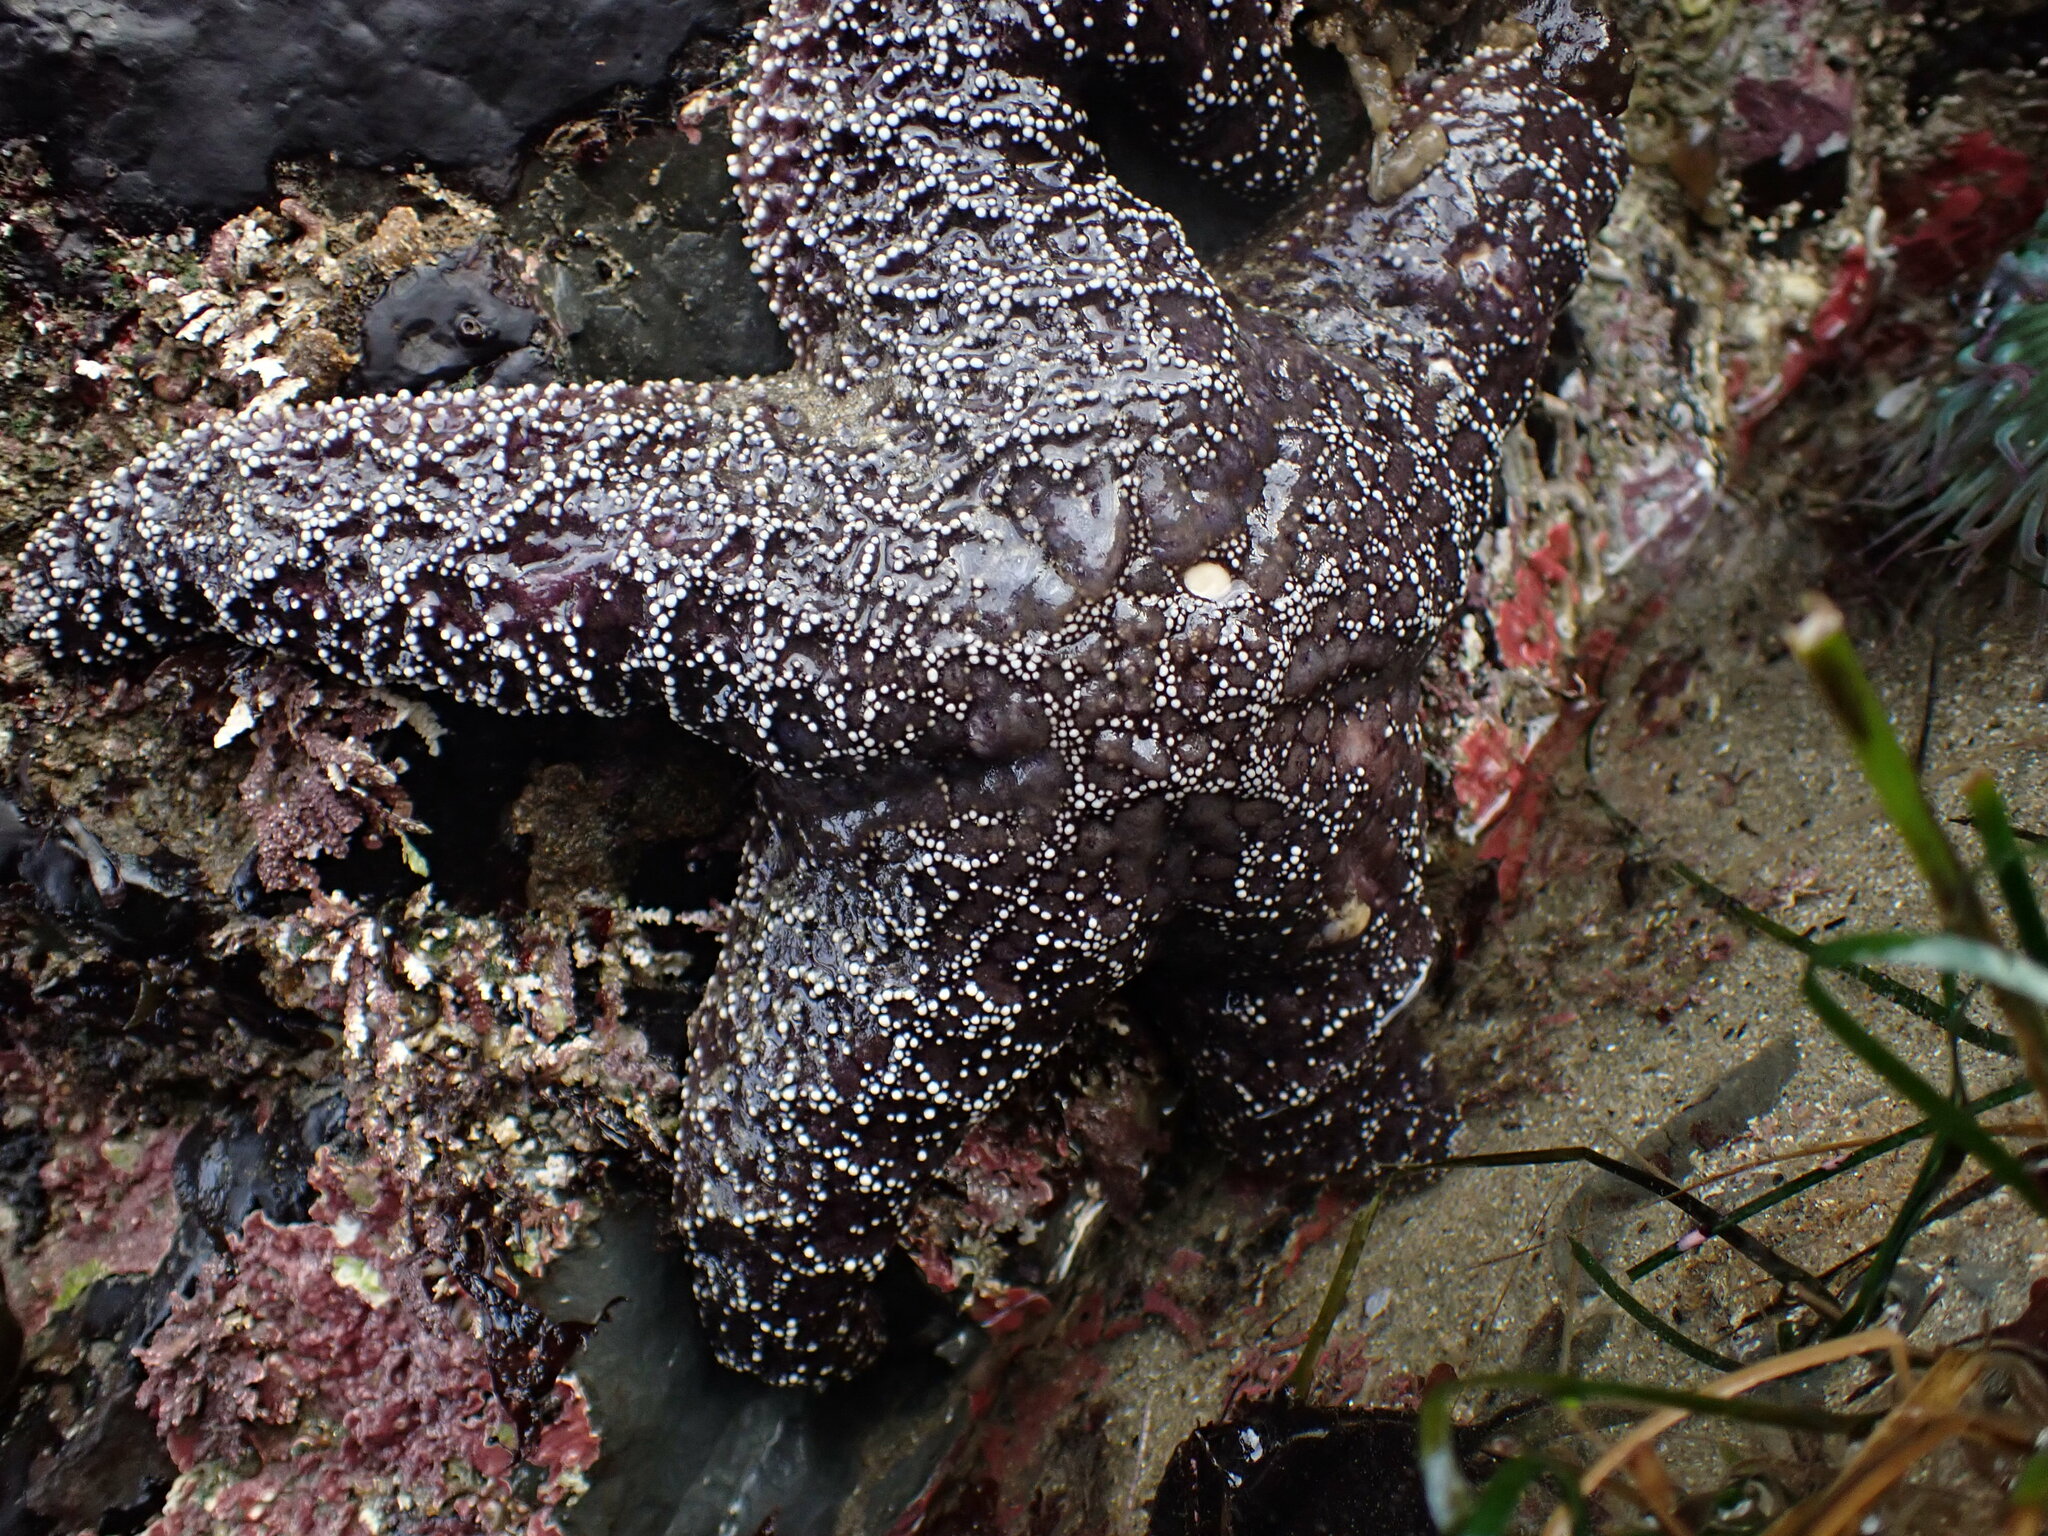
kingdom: Animalia
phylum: Echinodermata
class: Asteroidea
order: Forcipulatida
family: Asteriidae
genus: Pisaster
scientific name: Pisaster ochraceus
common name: Ochre stars
